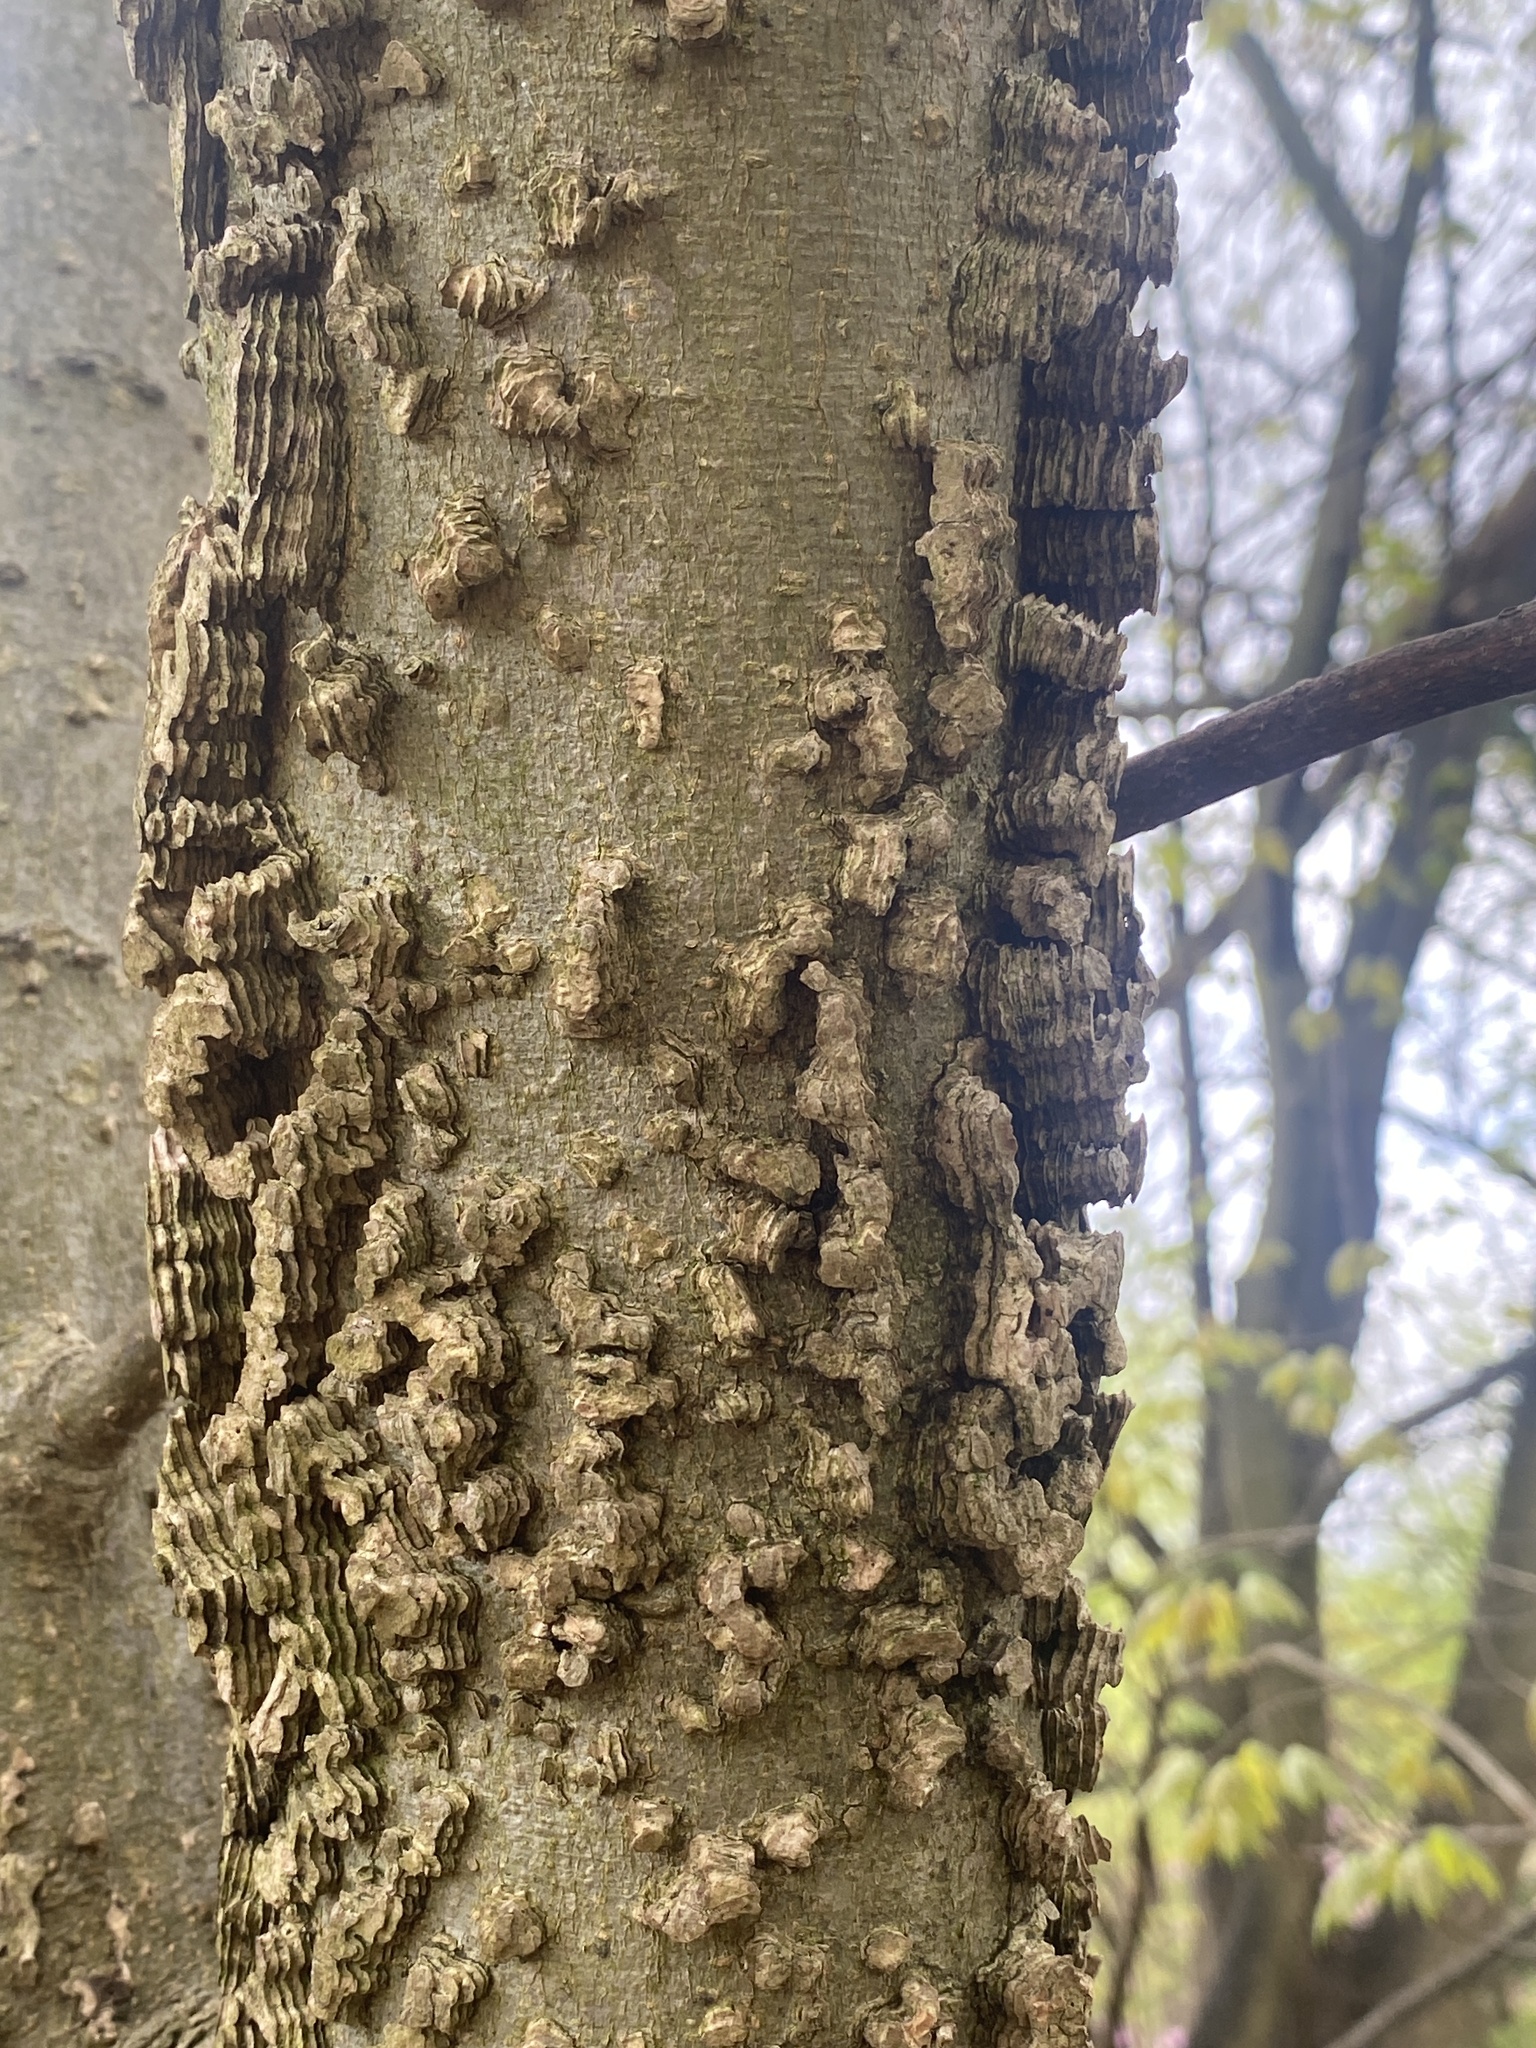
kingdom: Plantae
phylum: Tracheophyta
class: Magnoliopsida
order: Rosales
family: Cannabaceae
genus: Celtis
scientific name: Celtis occidentalis
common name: Common hackberry
